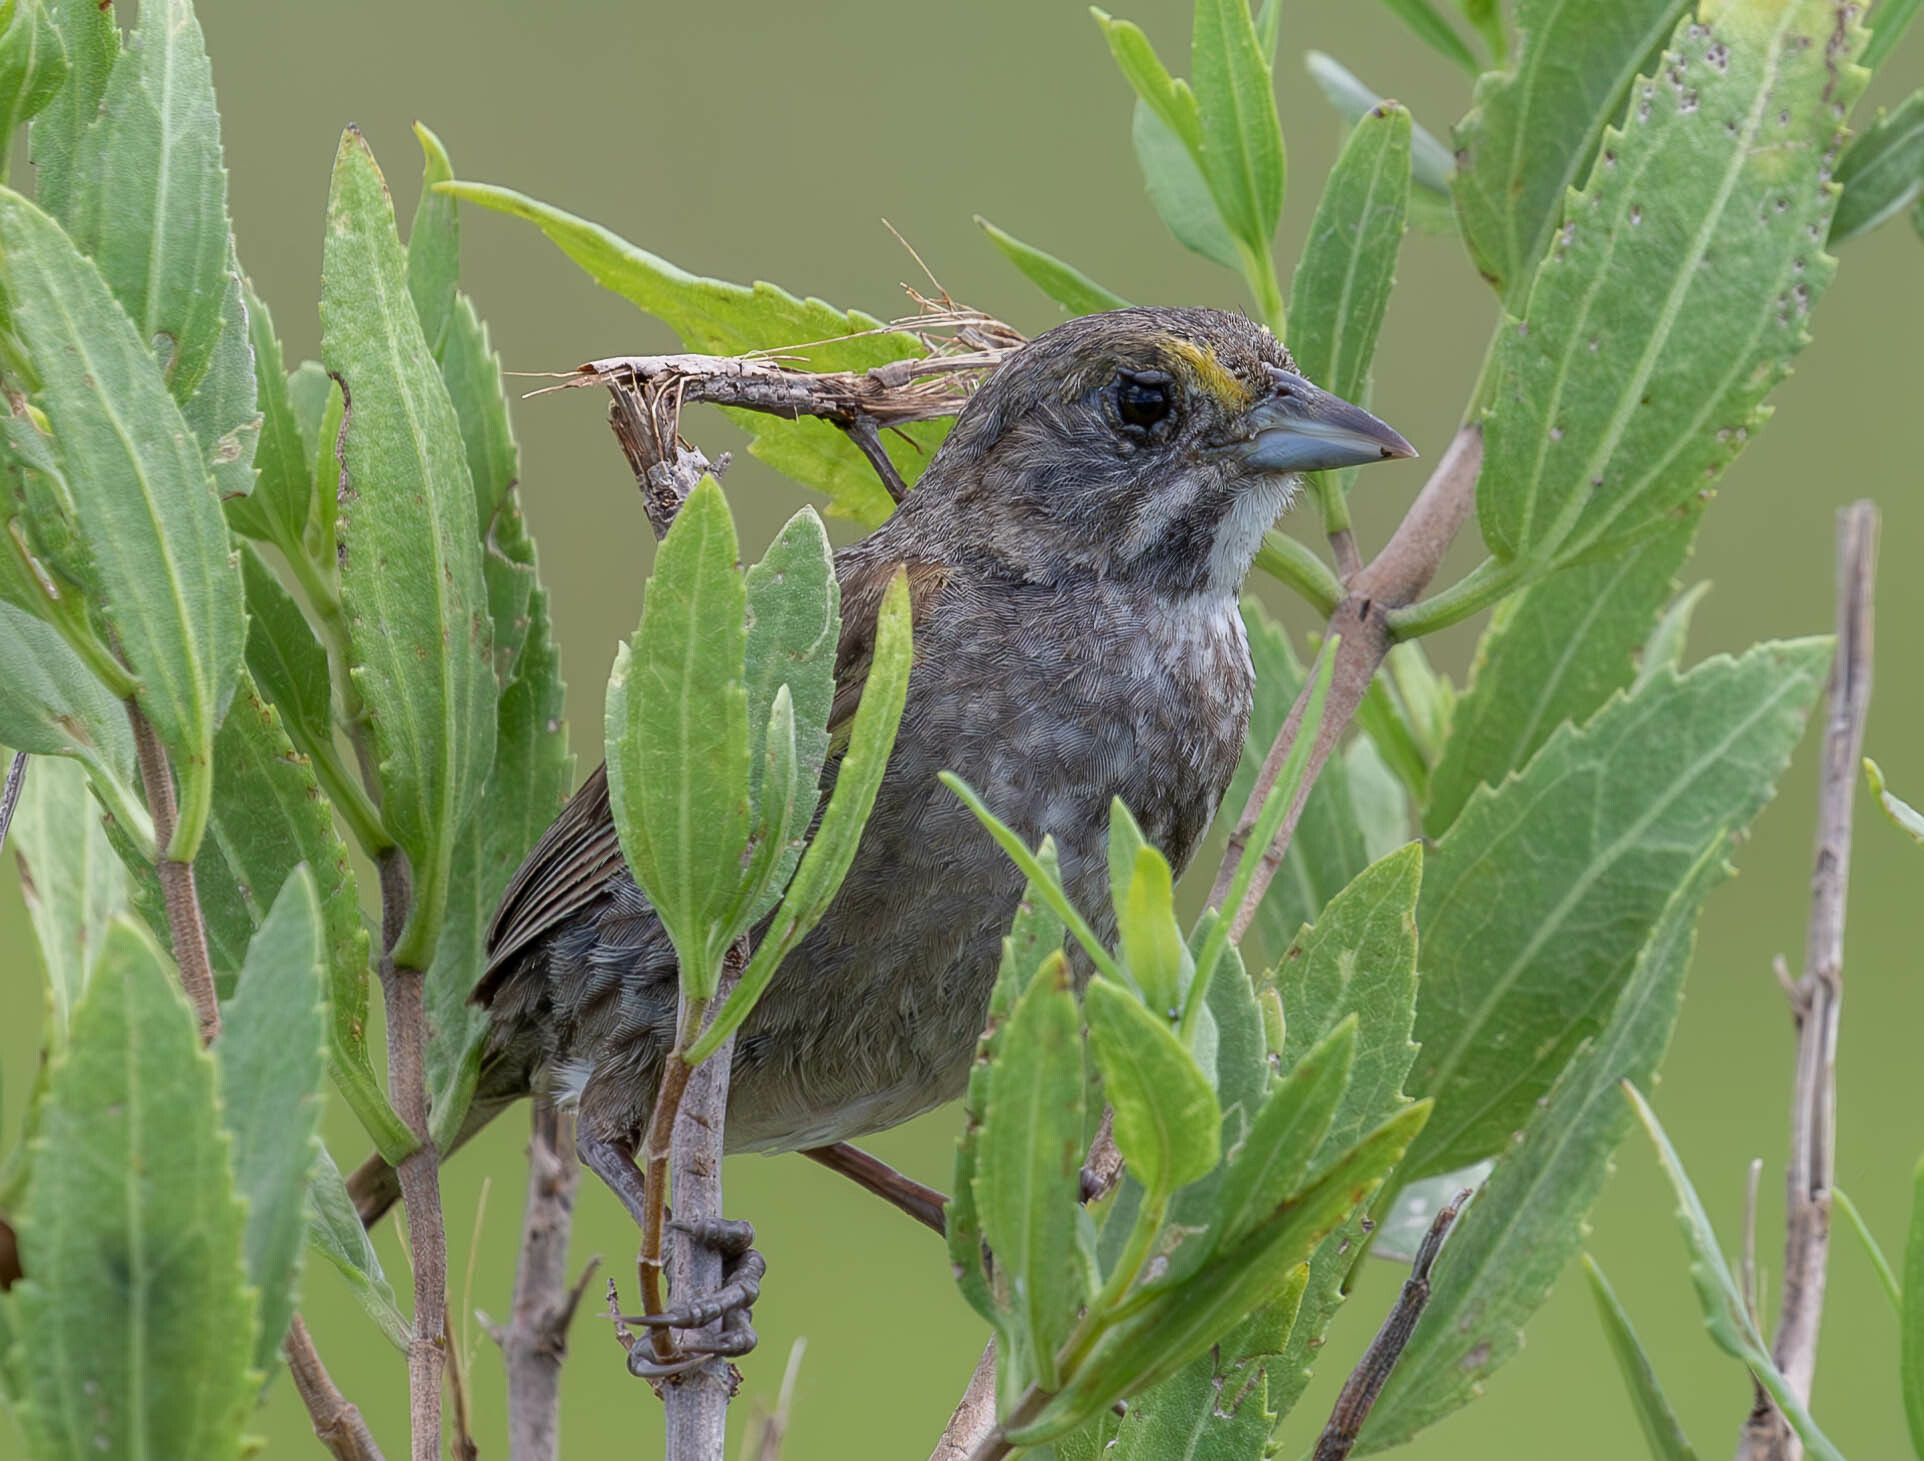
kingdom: Animalia
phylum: Chordata
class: Aves
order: Passeriformes
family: Passerellidae
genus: Ammospiza
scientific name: Ammospiza maritima
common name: Seaside sparrow
